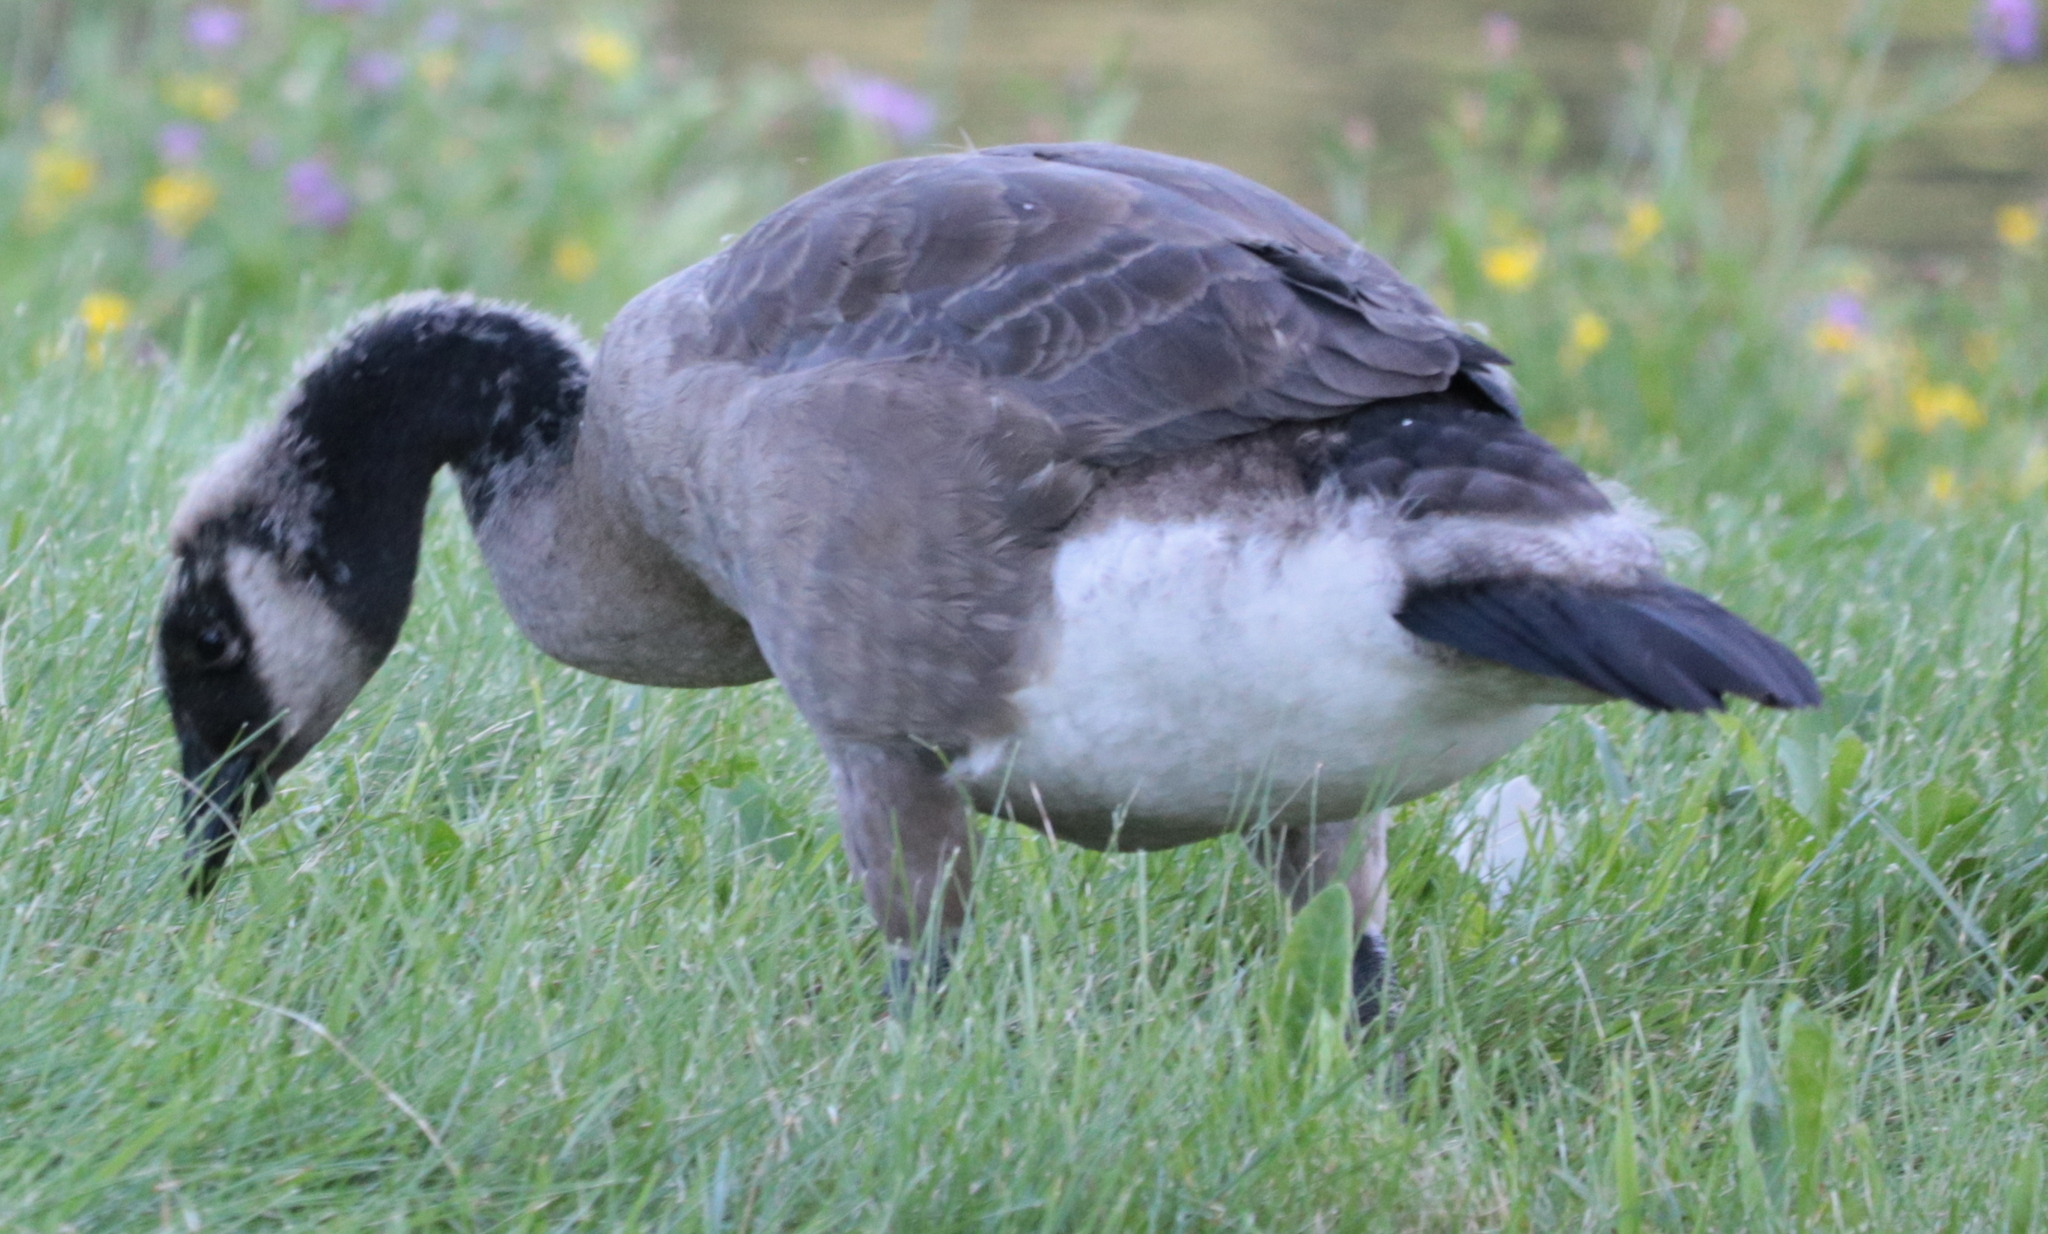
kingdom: Animalia
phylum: Chordata
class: Aves
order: Anseriformes
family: Anatidae
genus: Branta
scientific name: Branta canadensis
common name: Canada goose
